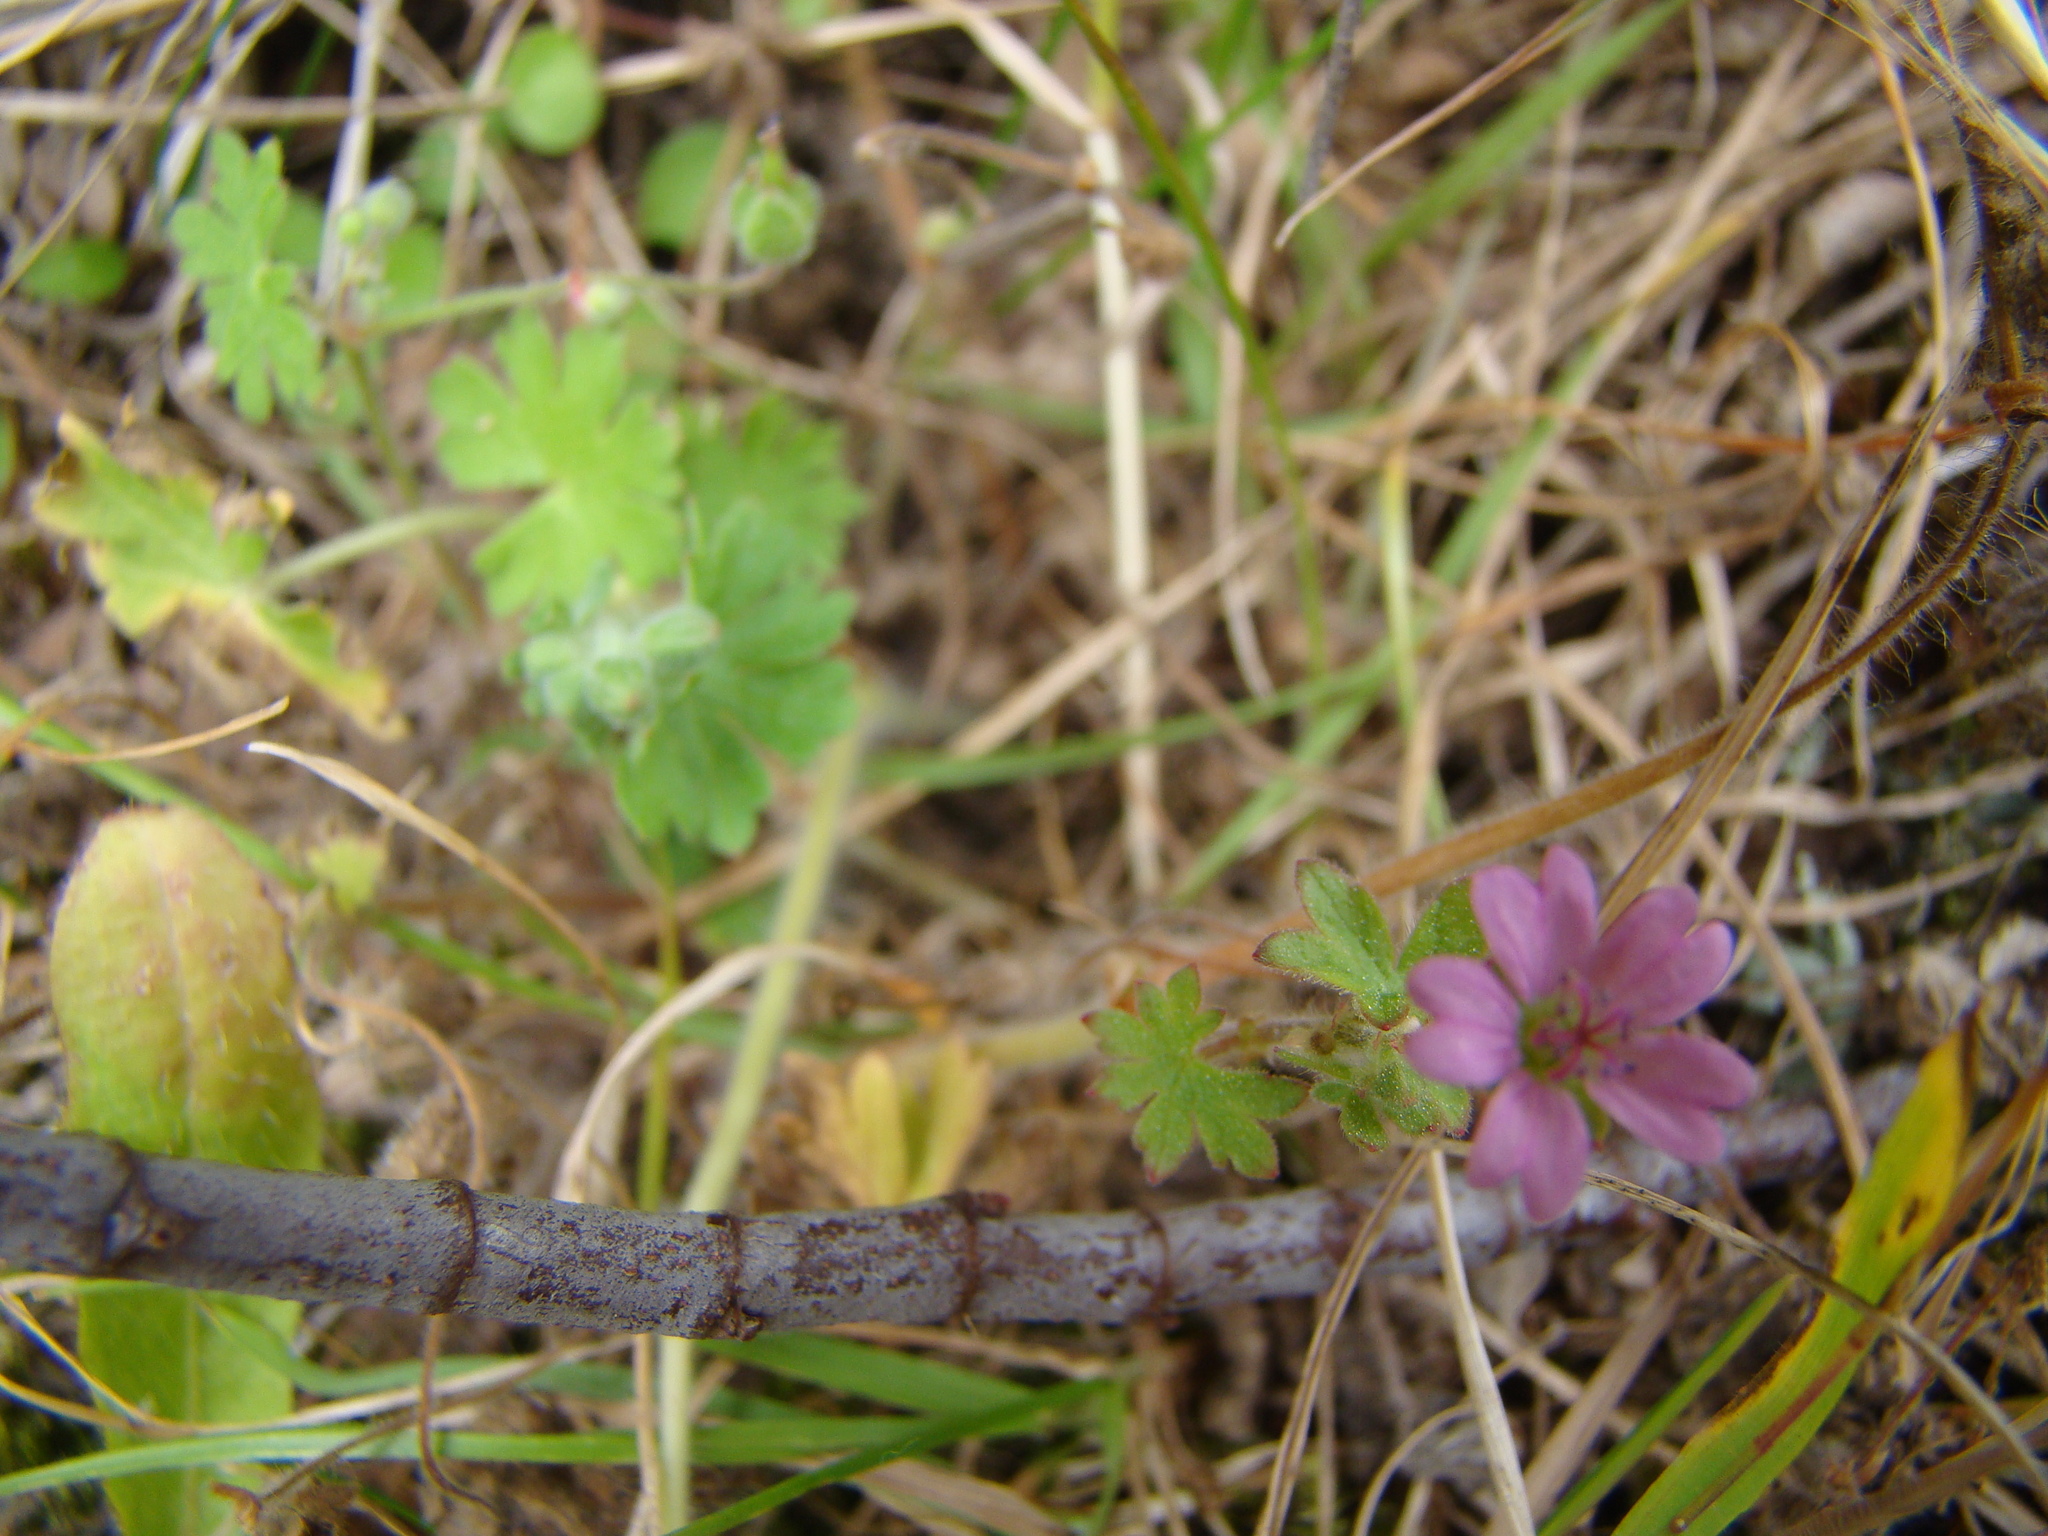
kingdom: Plantae
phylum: Tracheophyta
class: Magnoliopsida
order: Geraniales
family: Geraniaceae
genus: Geranium
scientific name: Geranium molle
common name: Dove's-foot crane's-bill
